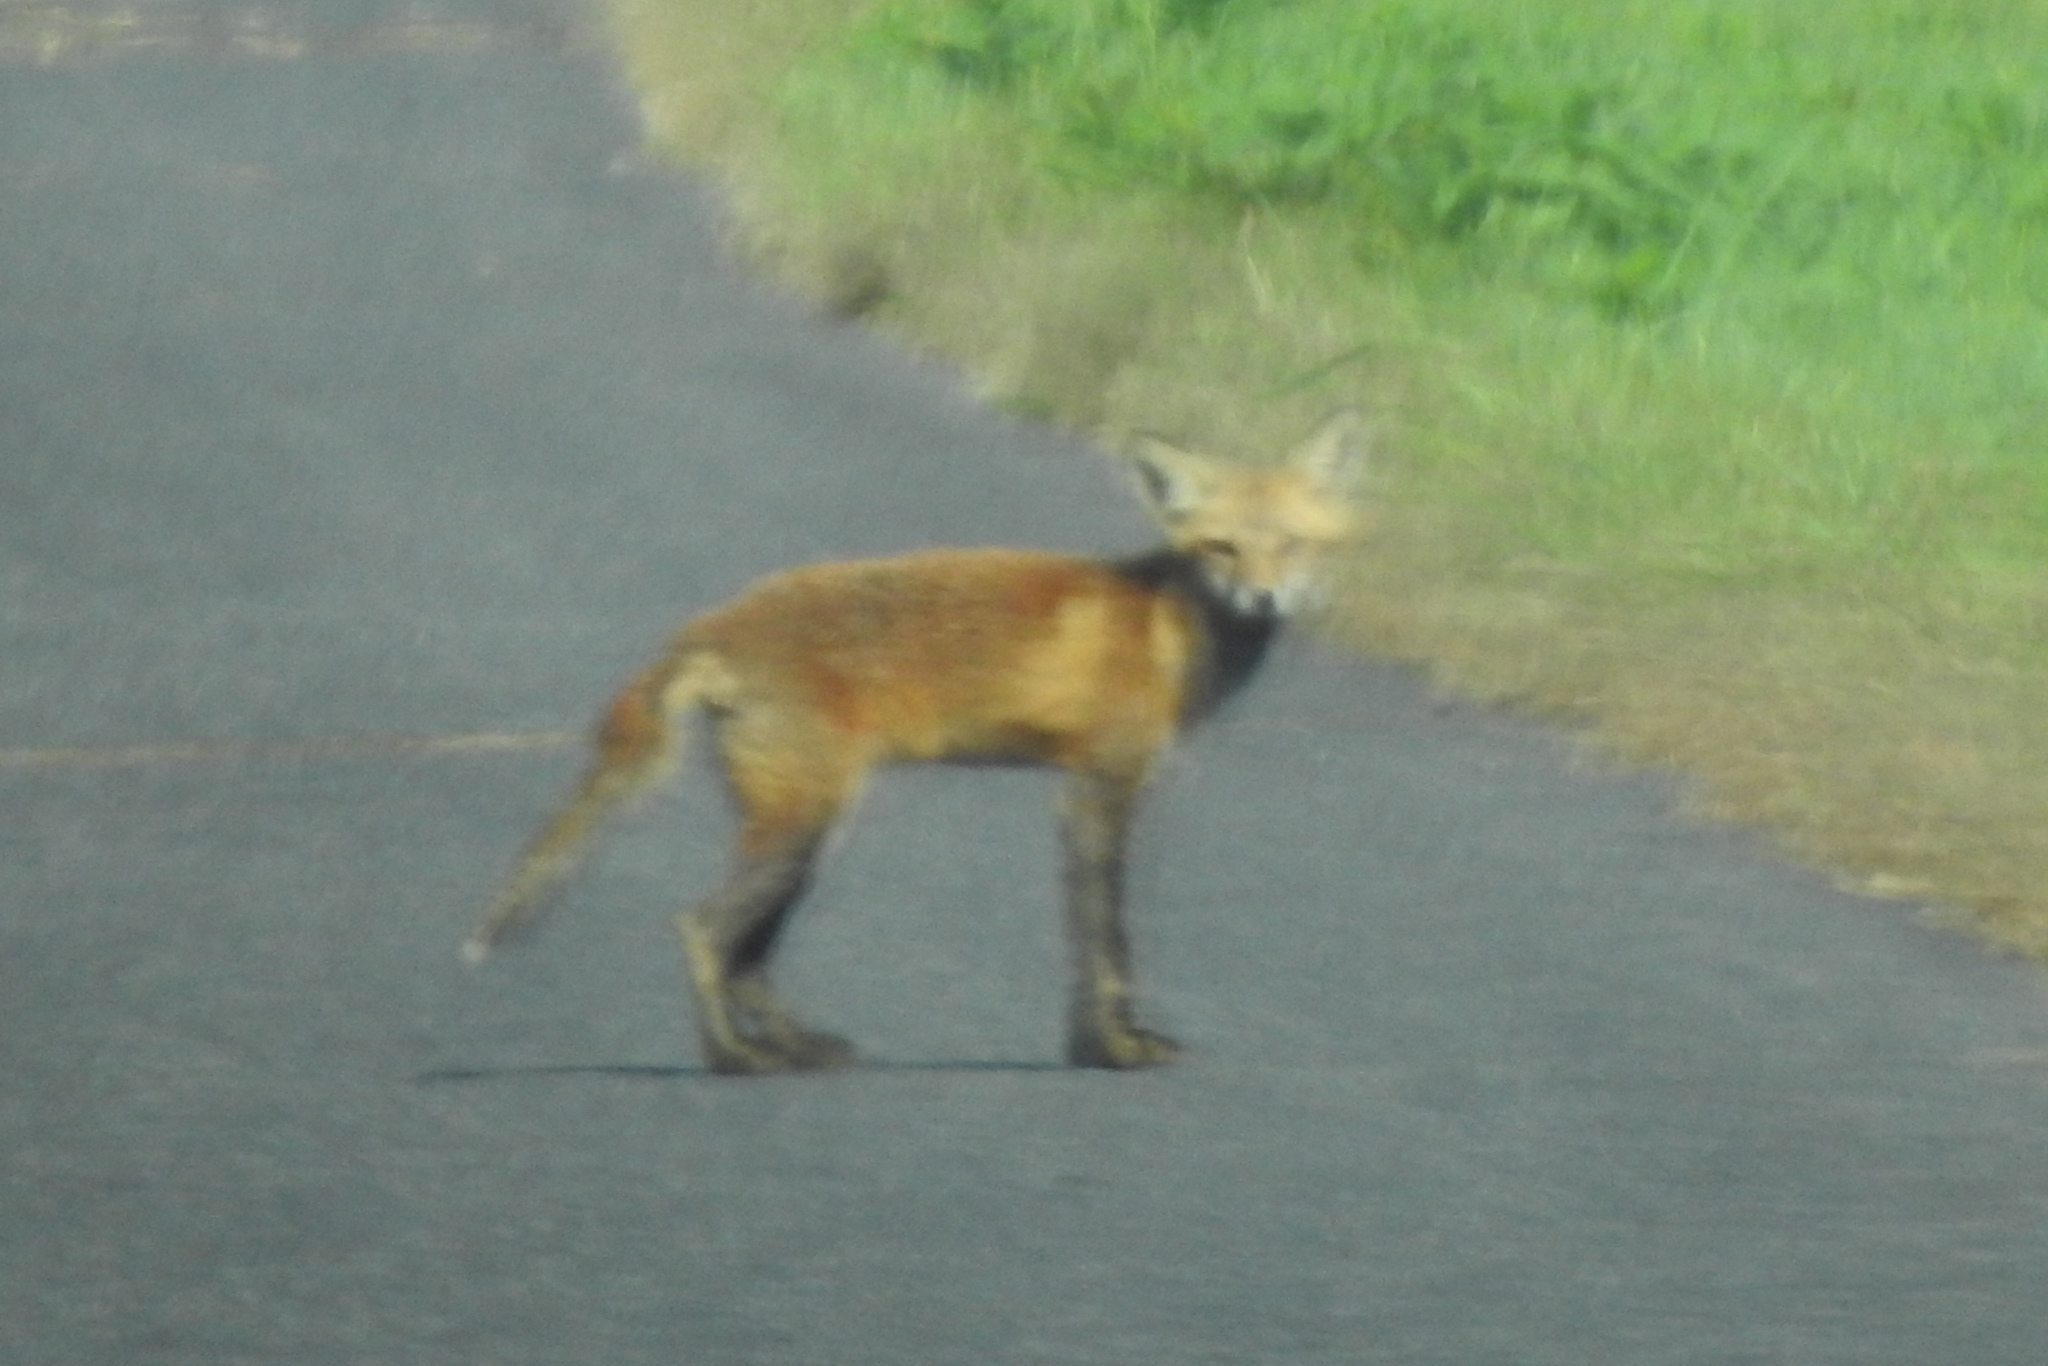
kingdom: Animalia
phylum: Chordata
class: Mammalia
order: Carnivora
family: Canidae
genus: Vulpes
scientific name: Vulpes vulpes
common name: Red fox
